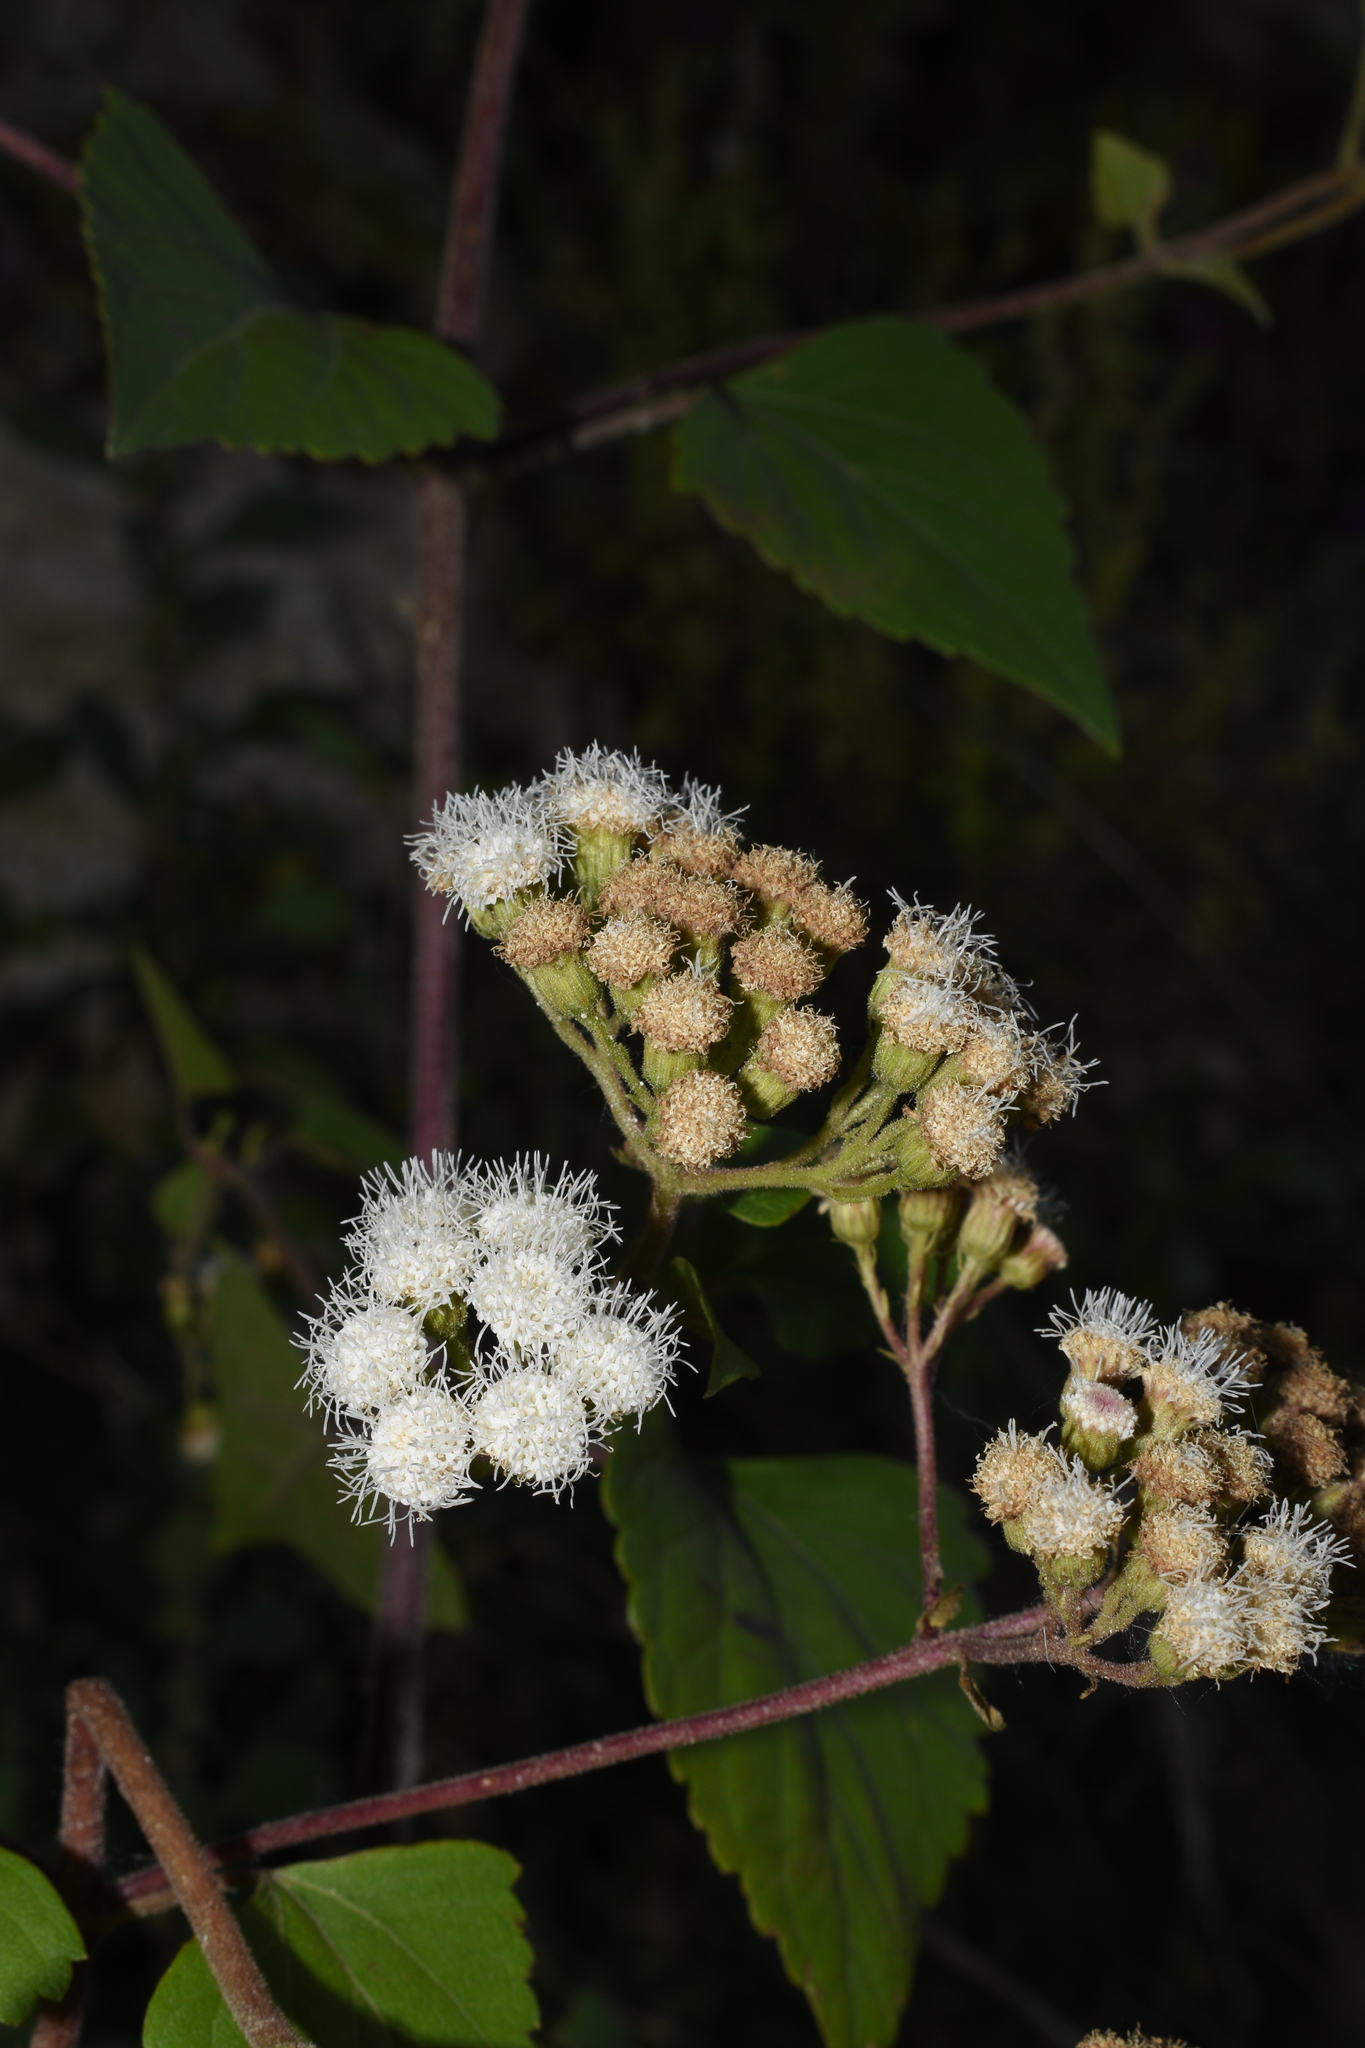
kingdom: Plantae
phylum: Tracheophyta
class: Magnoliopsida
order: Asterales
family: Asteraceae
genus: Ageratina
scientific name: Ageratina adenophora
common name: Sticky snakeroot
